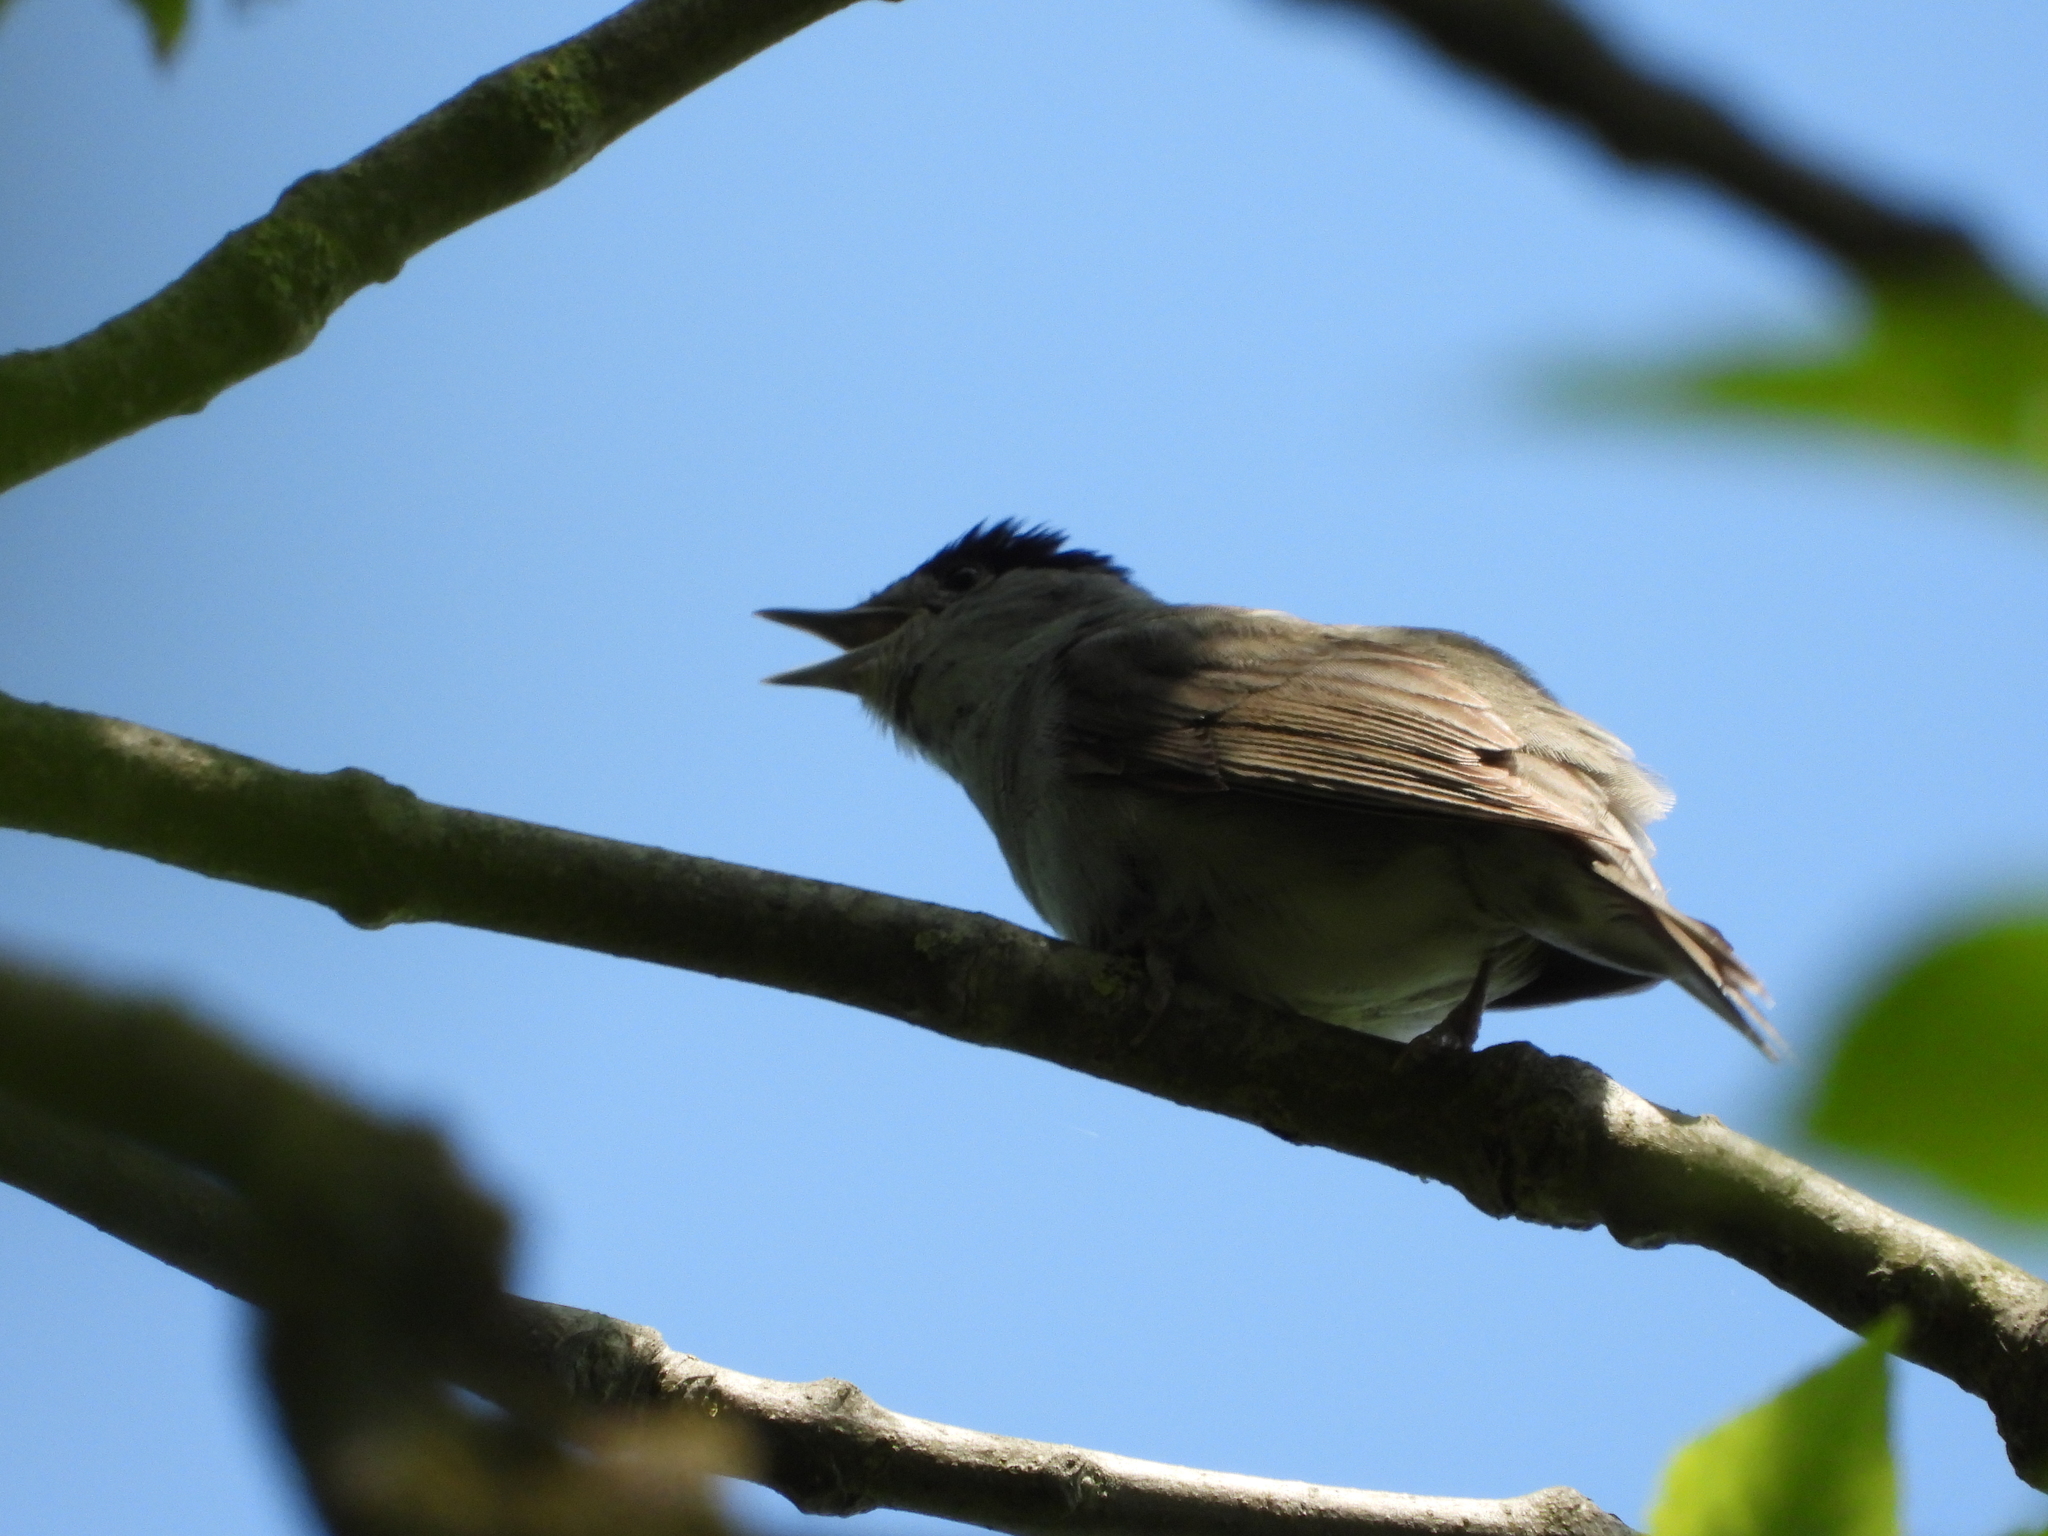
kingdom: Animalia
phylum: Chordata
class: Aves
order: Passeriformes
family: Sylviidae
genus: Sylvia
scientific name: Sylvia atricapilla
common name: Eurasian blackcap
